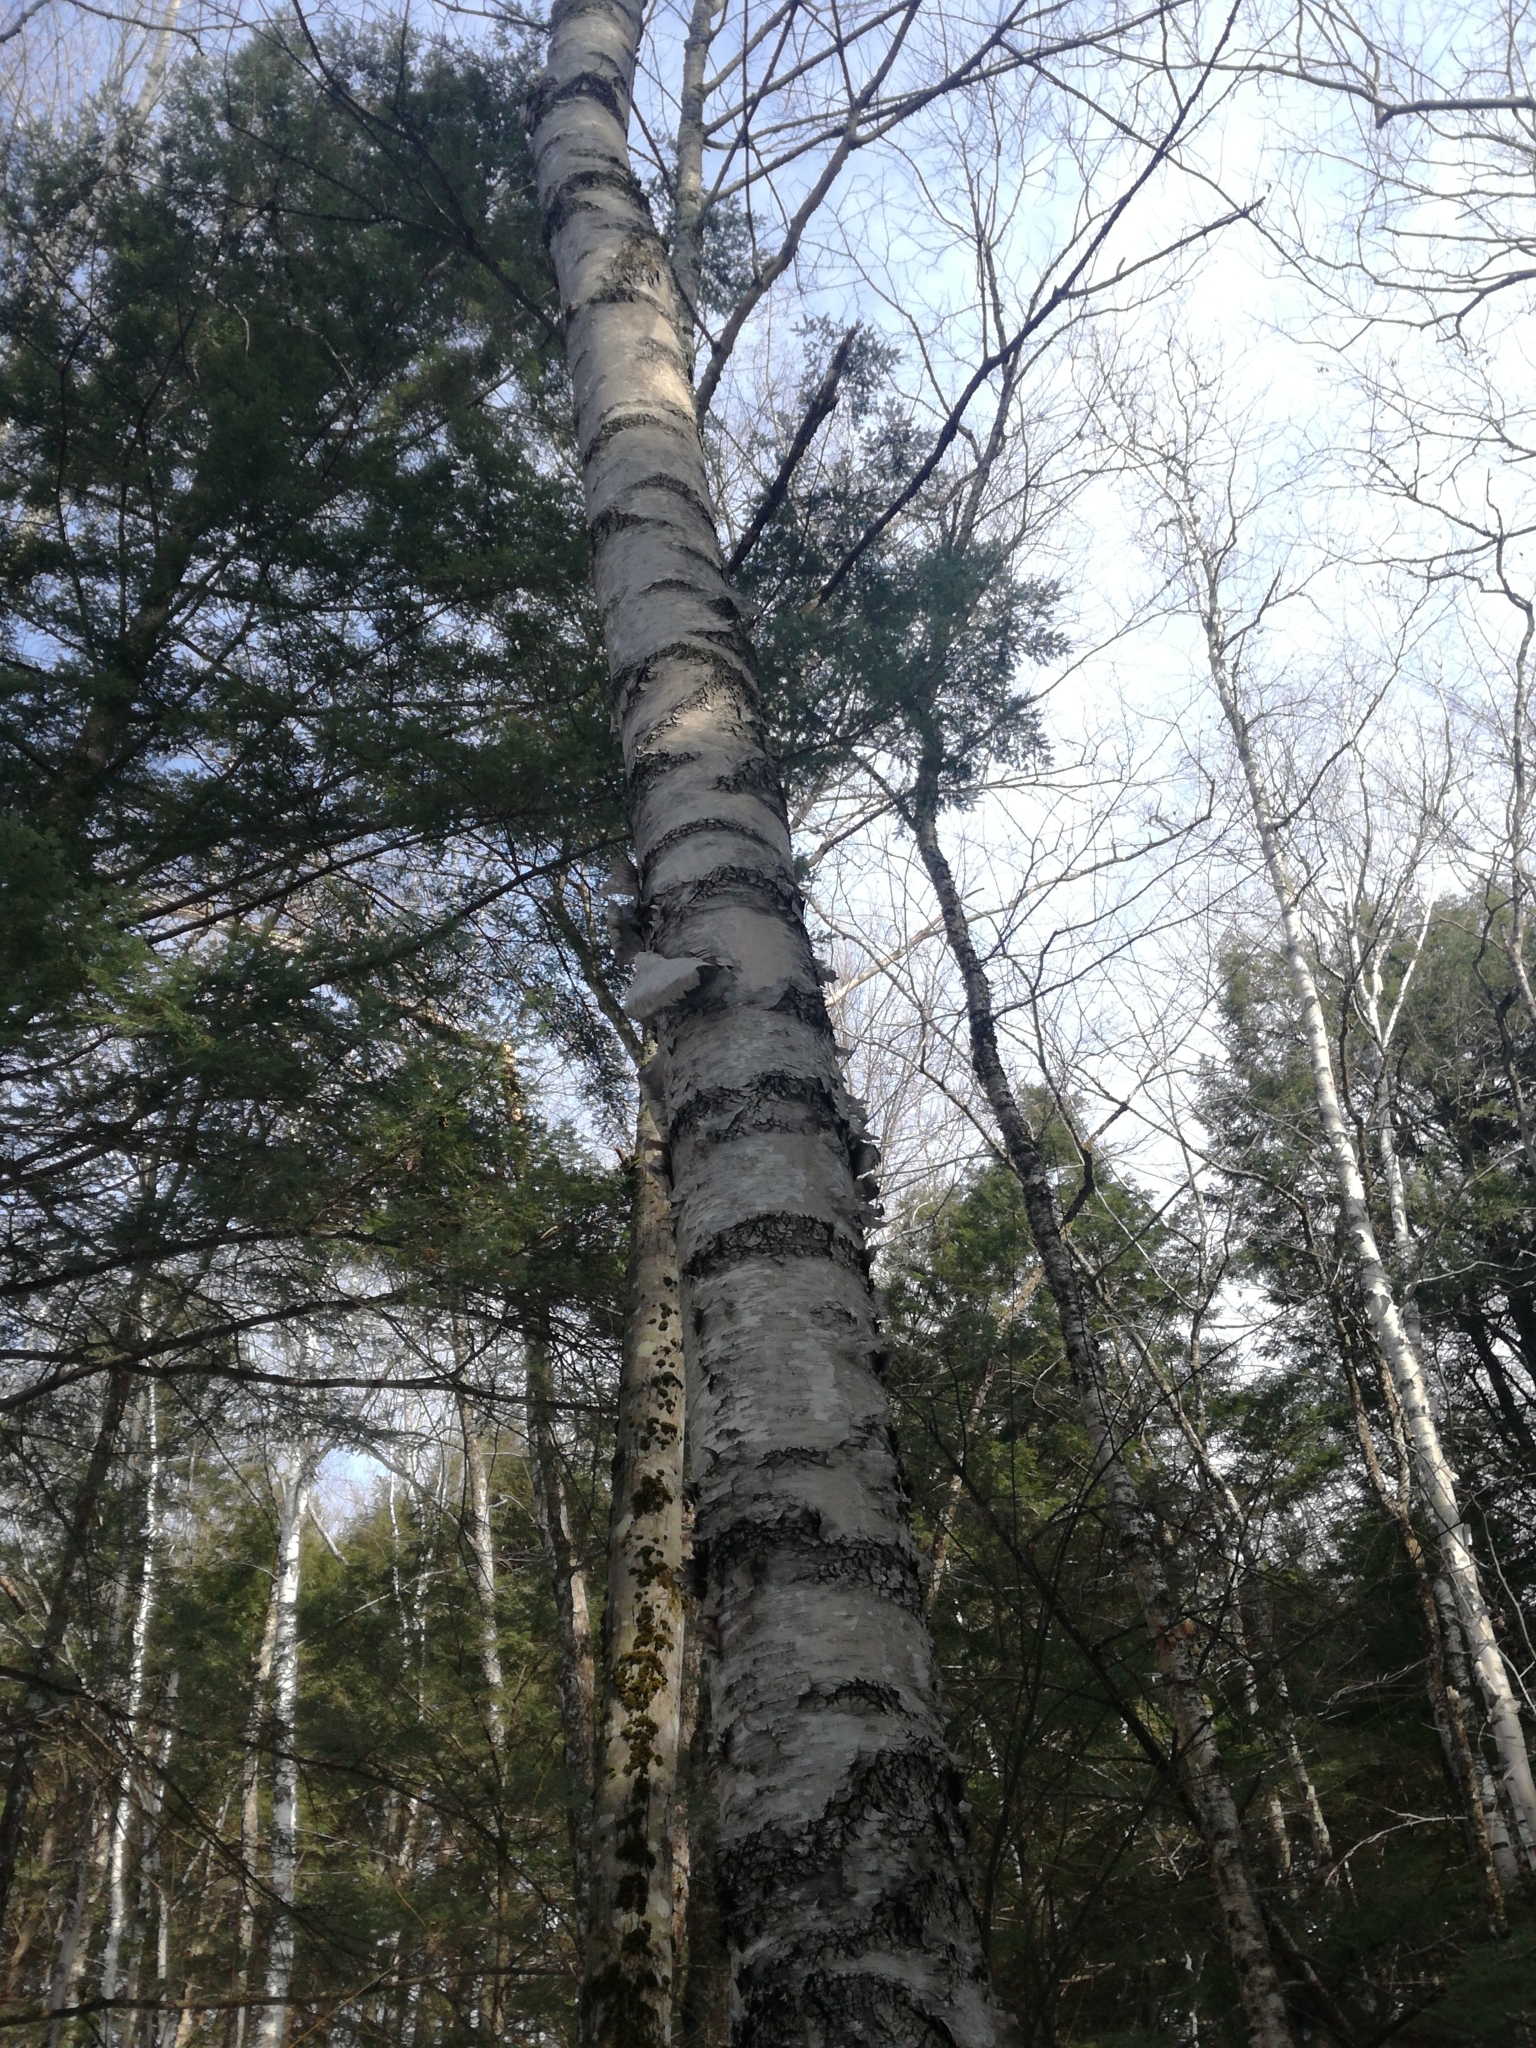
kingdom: Plantae
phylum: Tracheophyta
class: Magnoliopsida
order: Fagales
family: Betulaceae
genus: Betula
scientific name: Betula papyrifera
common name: Paper birch
